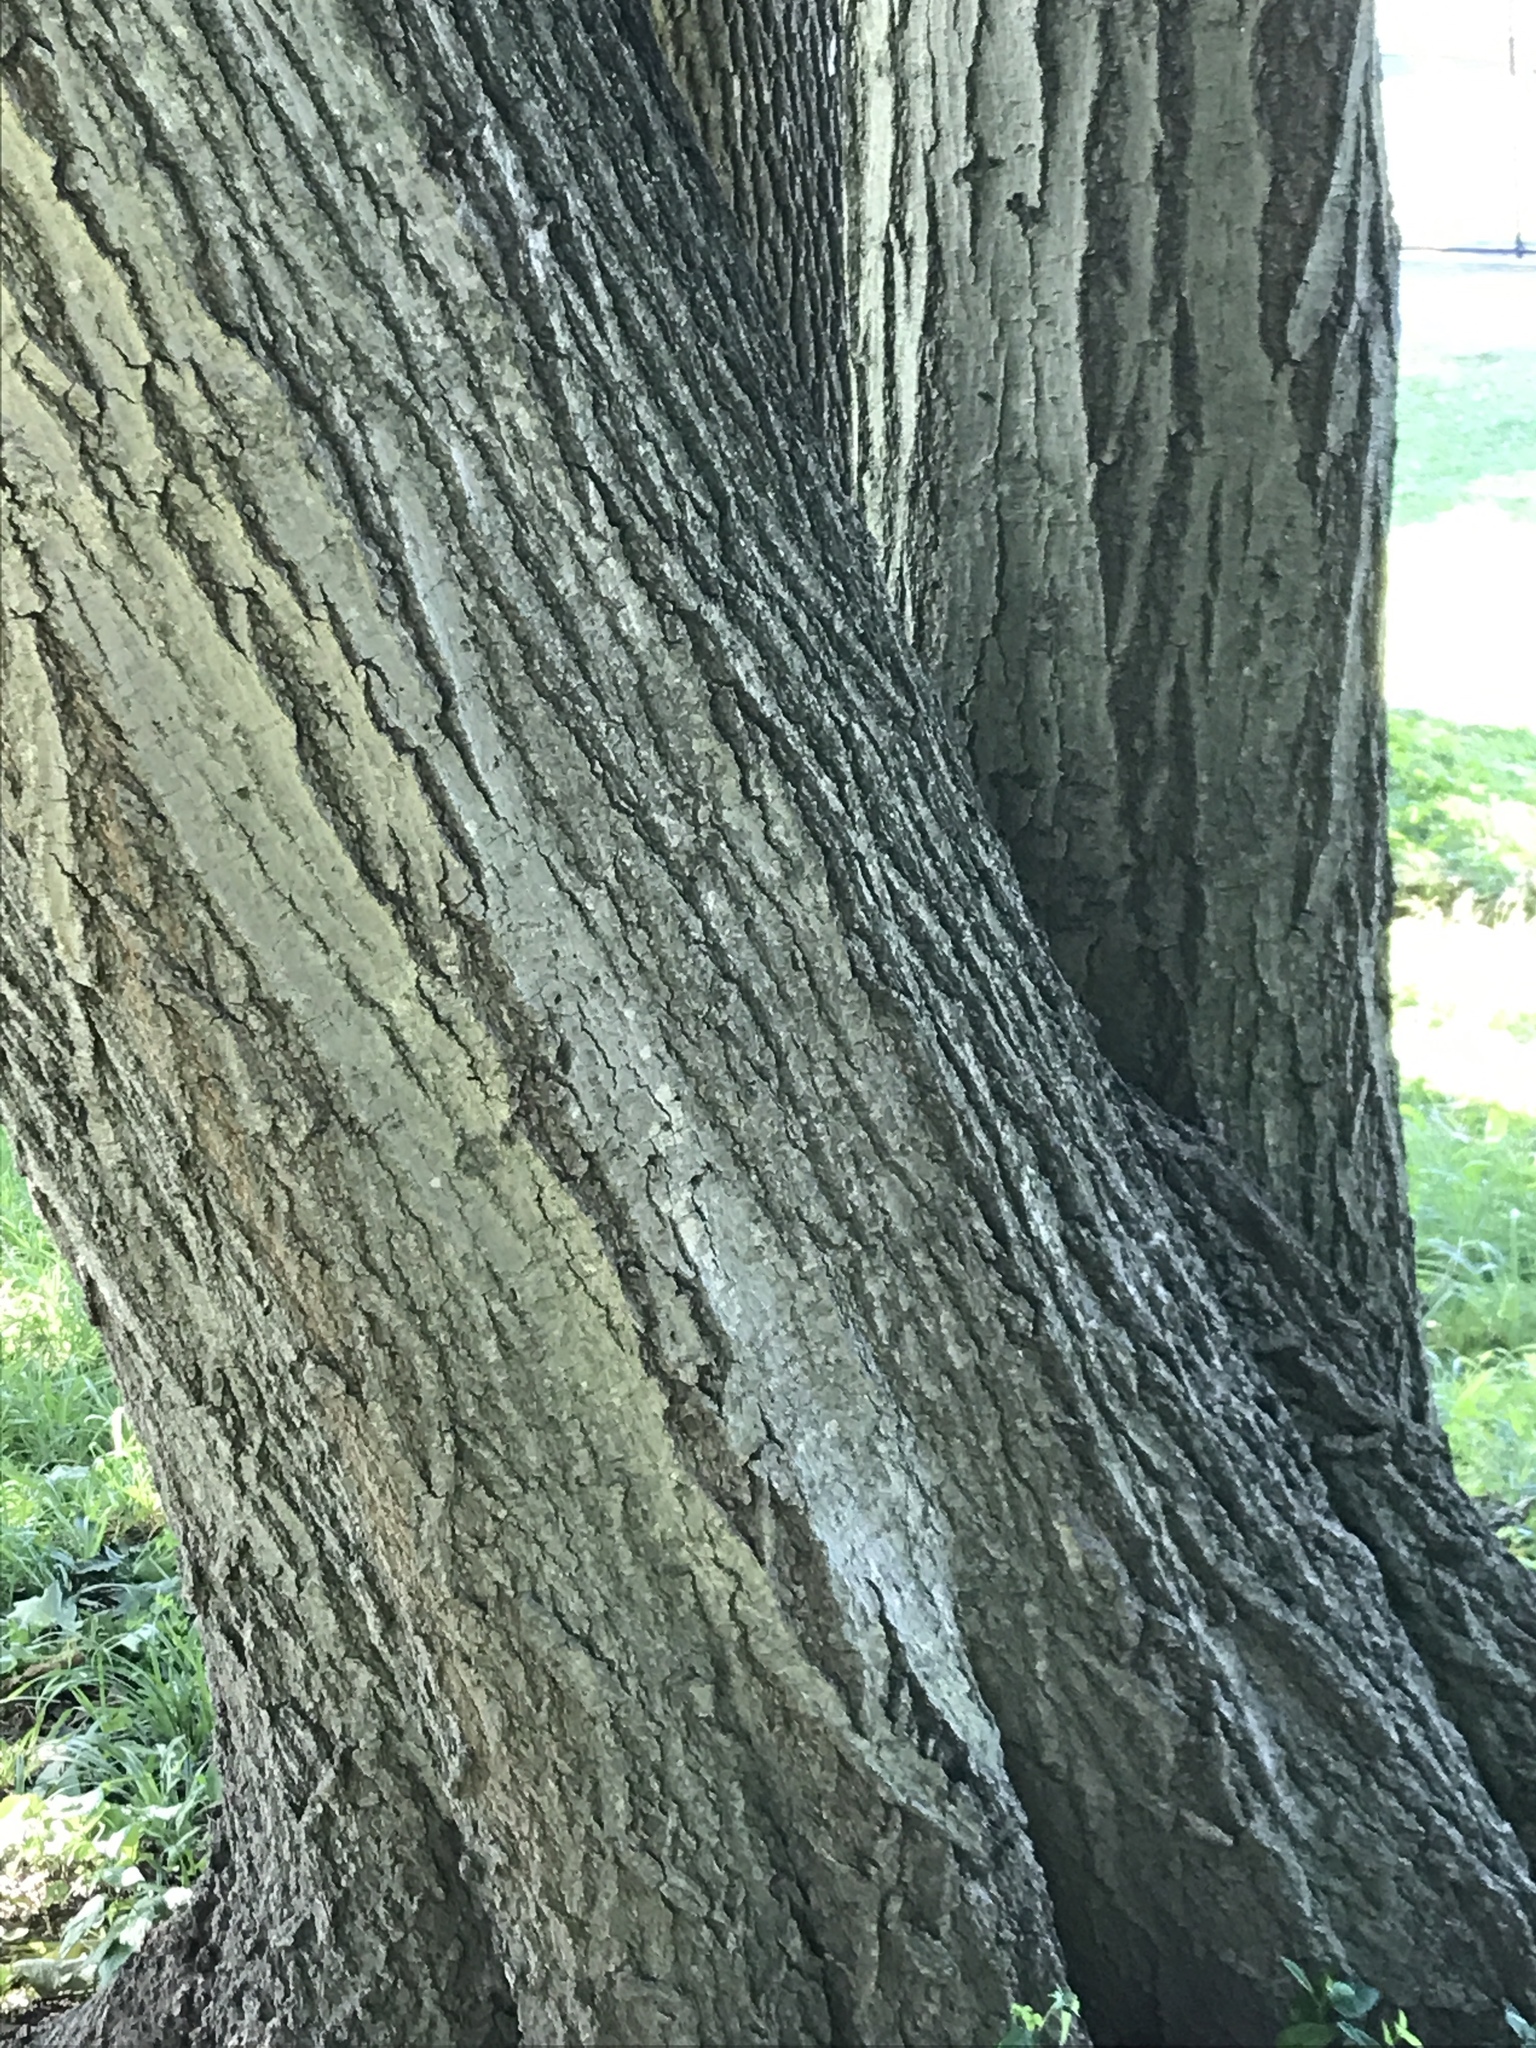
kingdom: Plantae
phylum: Tracheophyta
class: Magnoliopsida
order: Fagales
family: Fagaceae
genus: Quercus
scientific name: Quercus rubra
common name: Red oak
